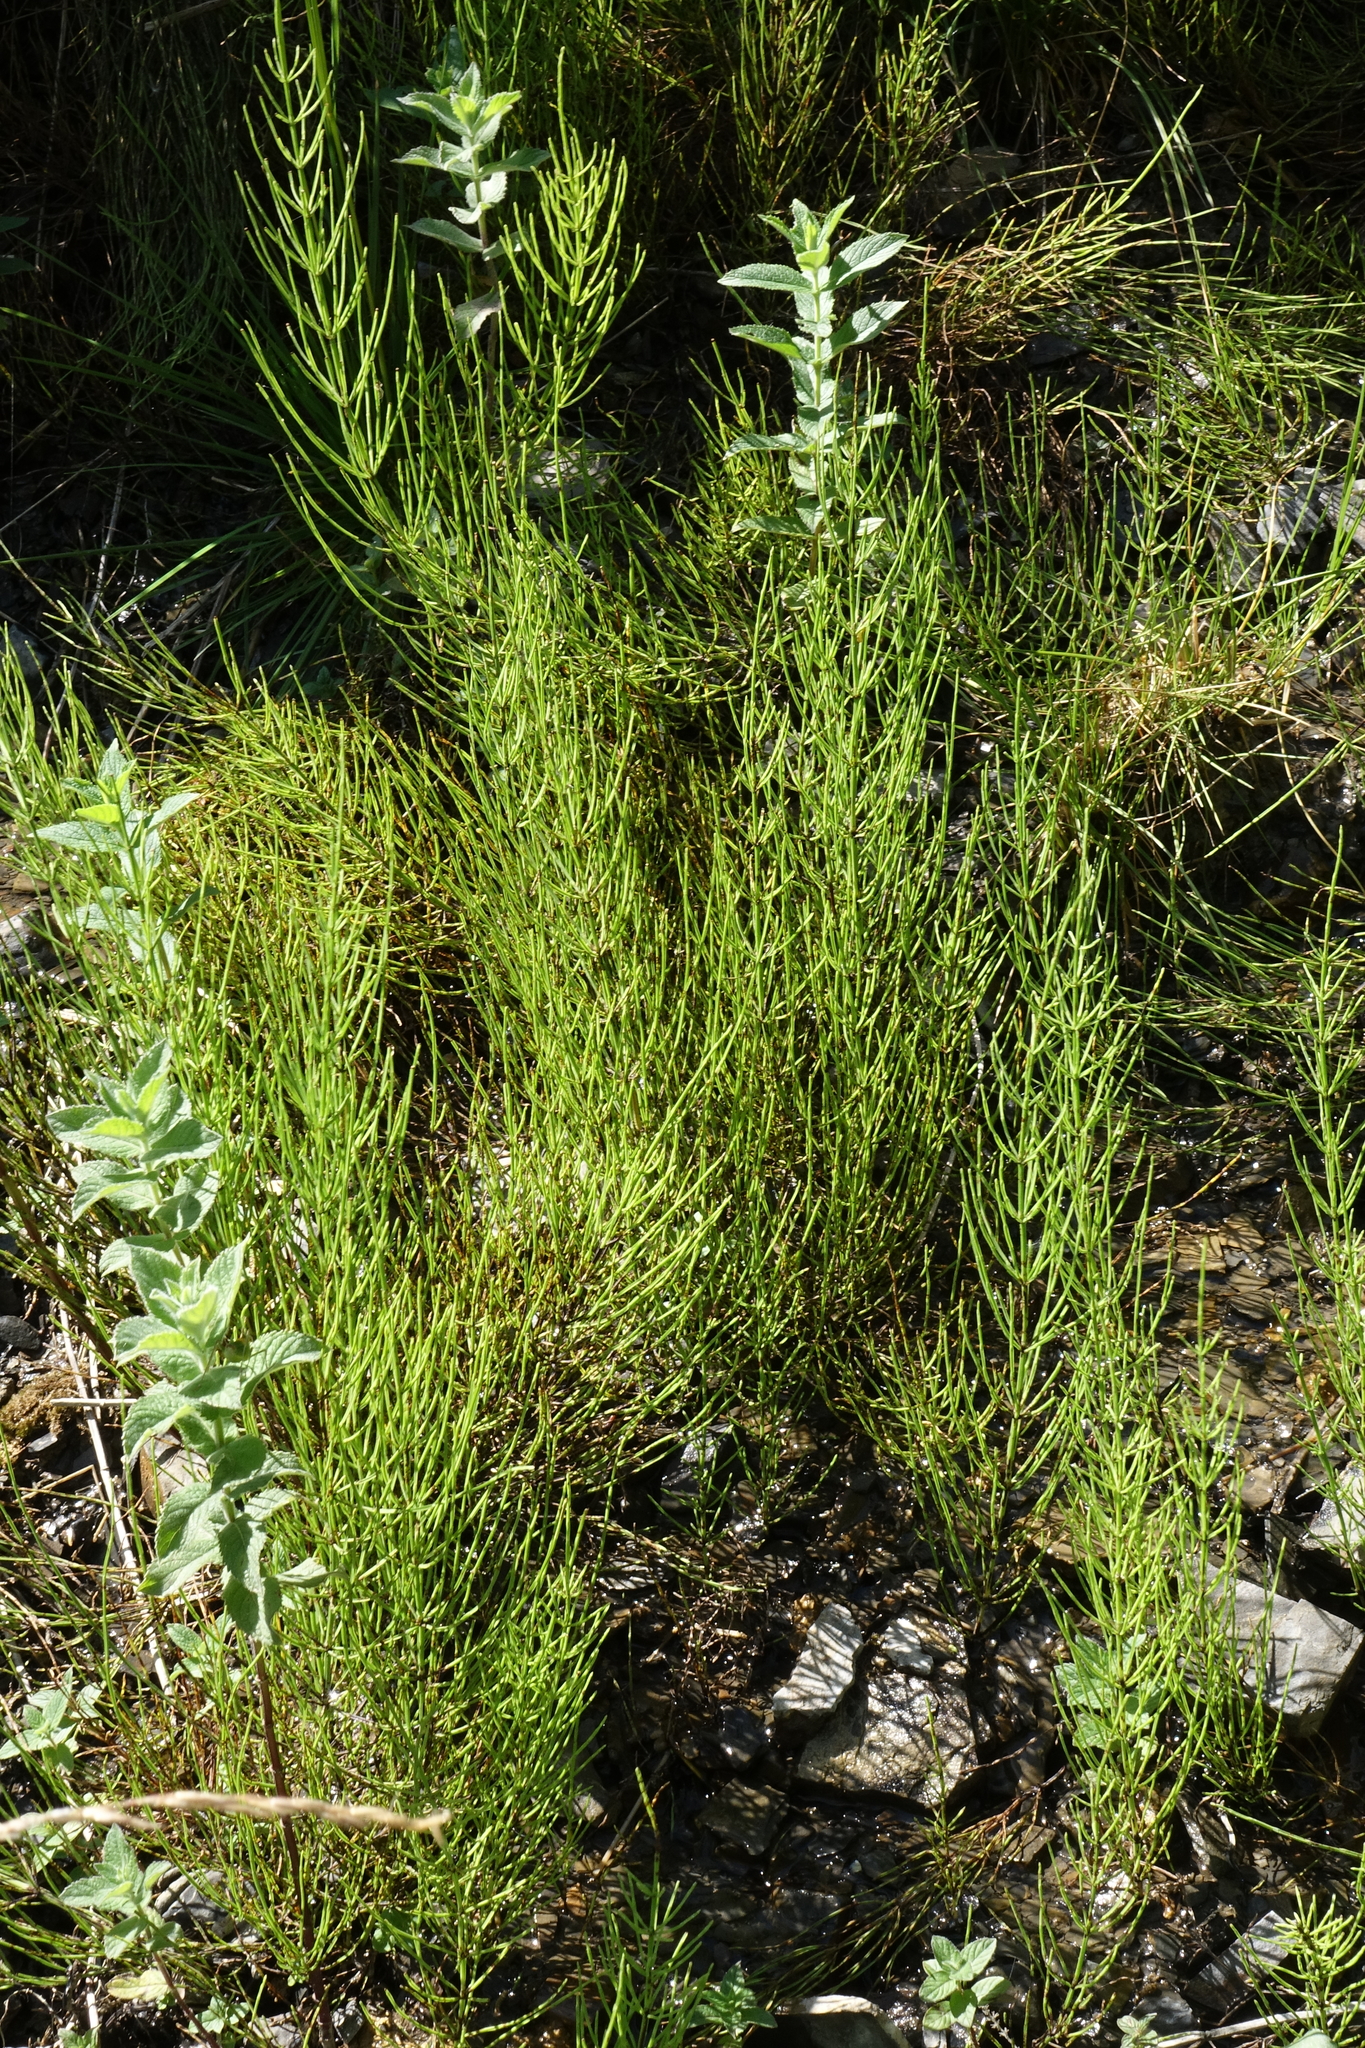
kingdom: Plantae
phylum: Tracheophyta
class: Polypodiopsida
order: Equisetales
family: Equisetaceae
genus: Equisetum
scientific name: Equisetum arvense
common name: Field horsetail
